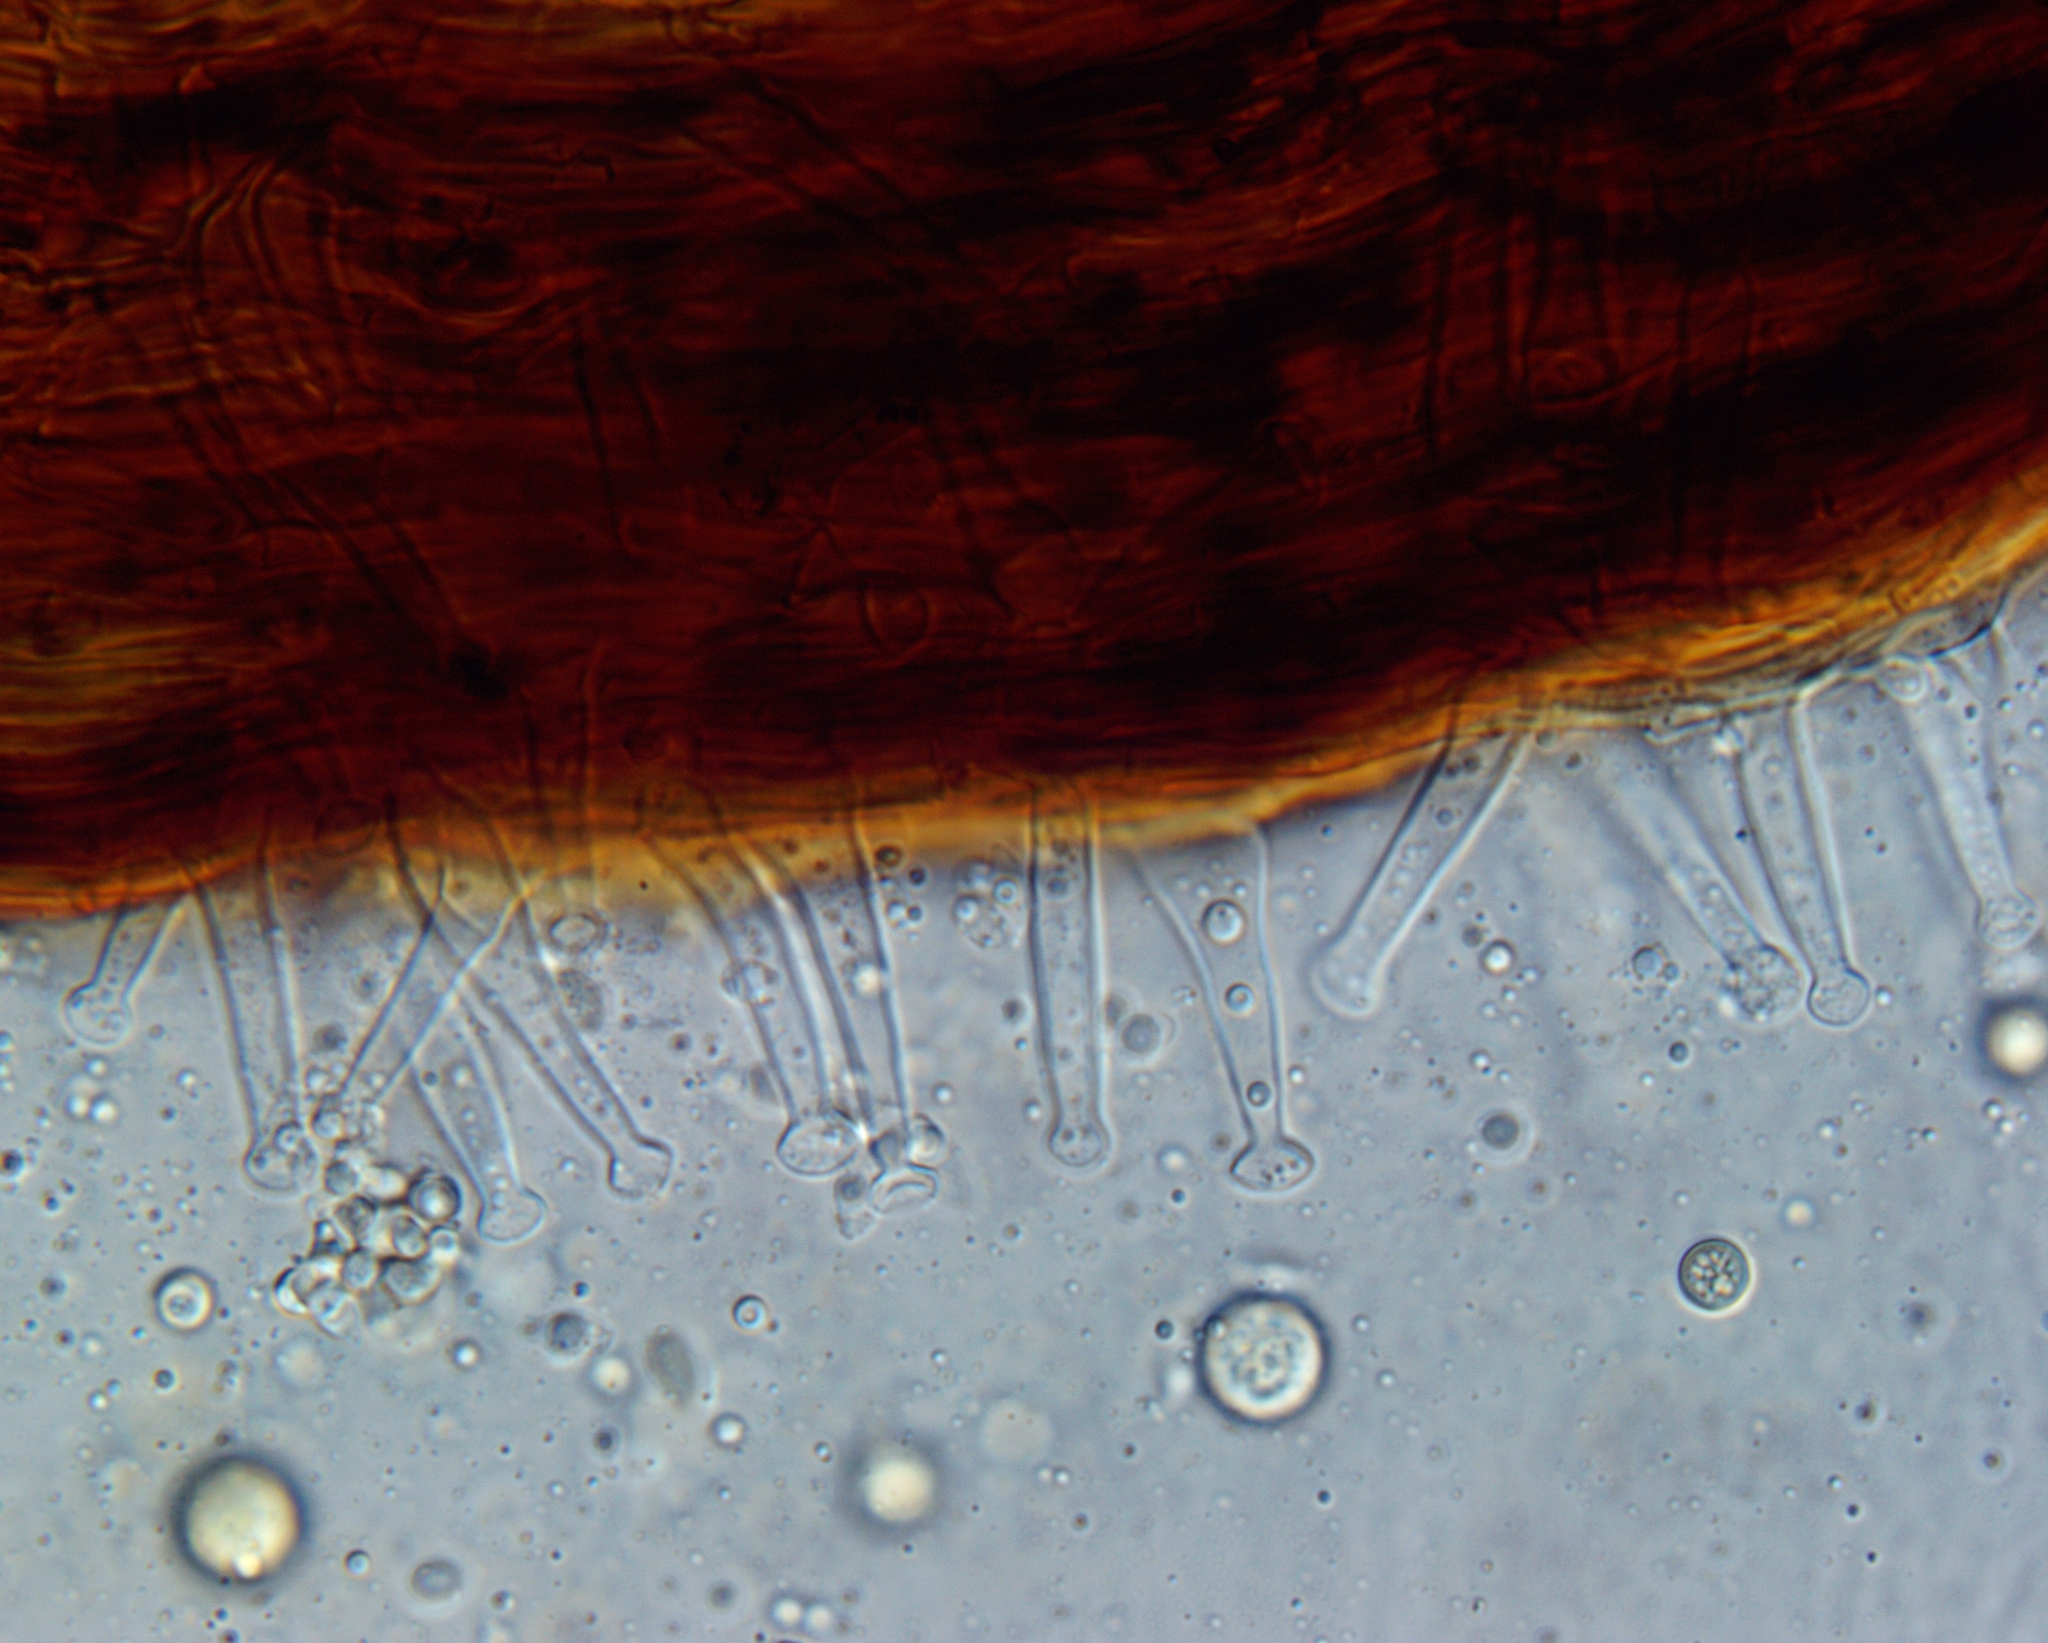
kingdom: Fungi
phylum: Basidiomycota
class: Agaricomycetes
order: Agaricales
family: Physalacriaceae
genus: Gloiocephala
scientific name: Gloiocephala phormiorum
